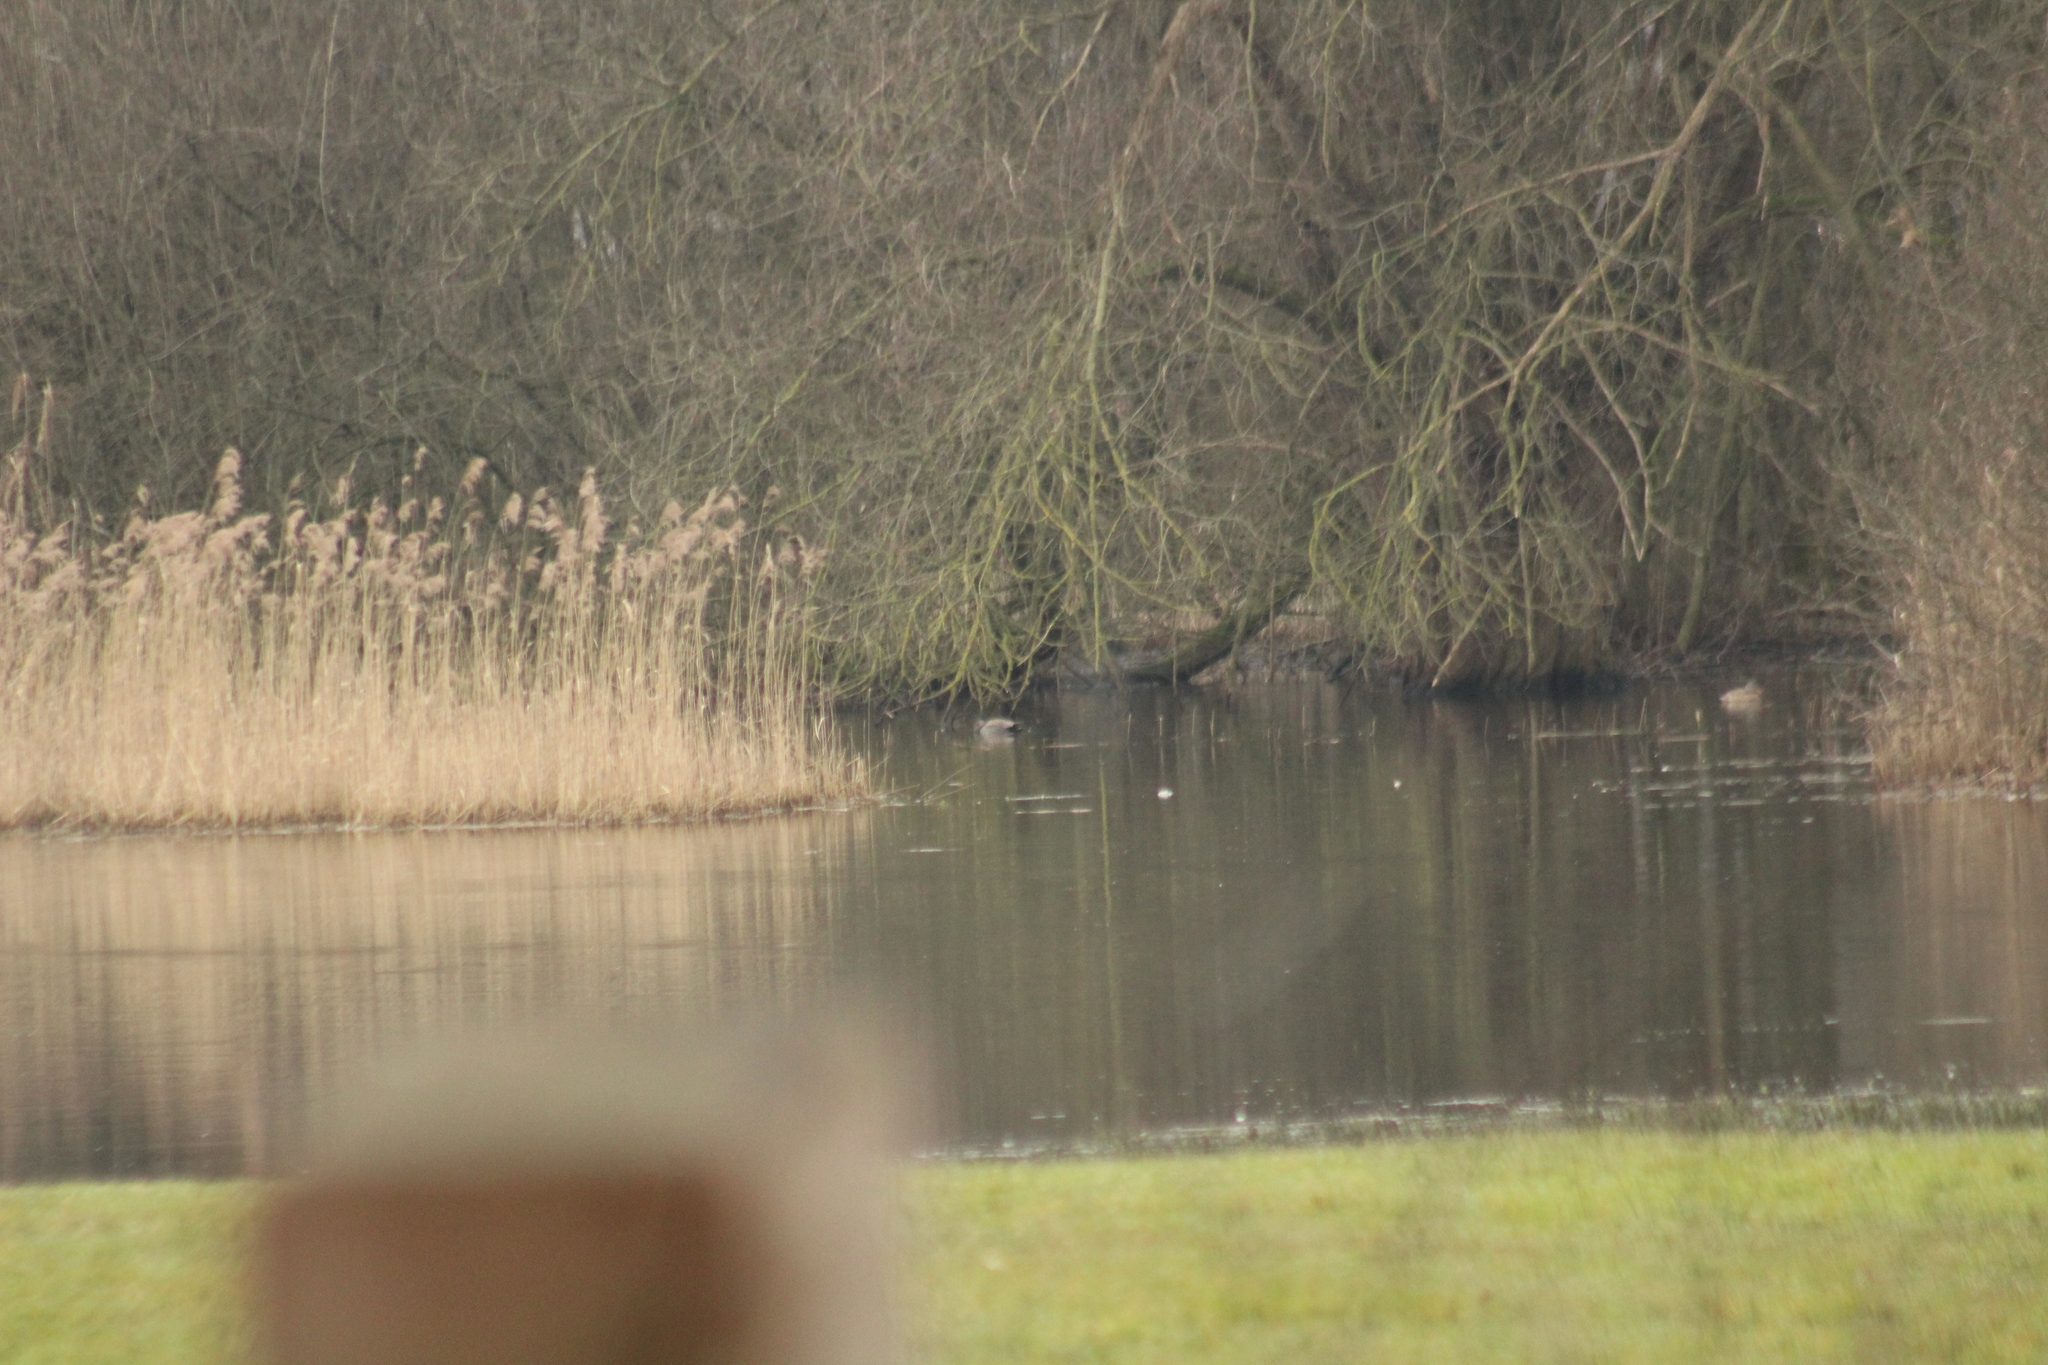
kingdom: Animalia
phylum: Chordata
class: Aves
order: Anseriformes
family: Anatidae
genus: Mareca
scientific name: Mareca strepera
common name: Gadwall
